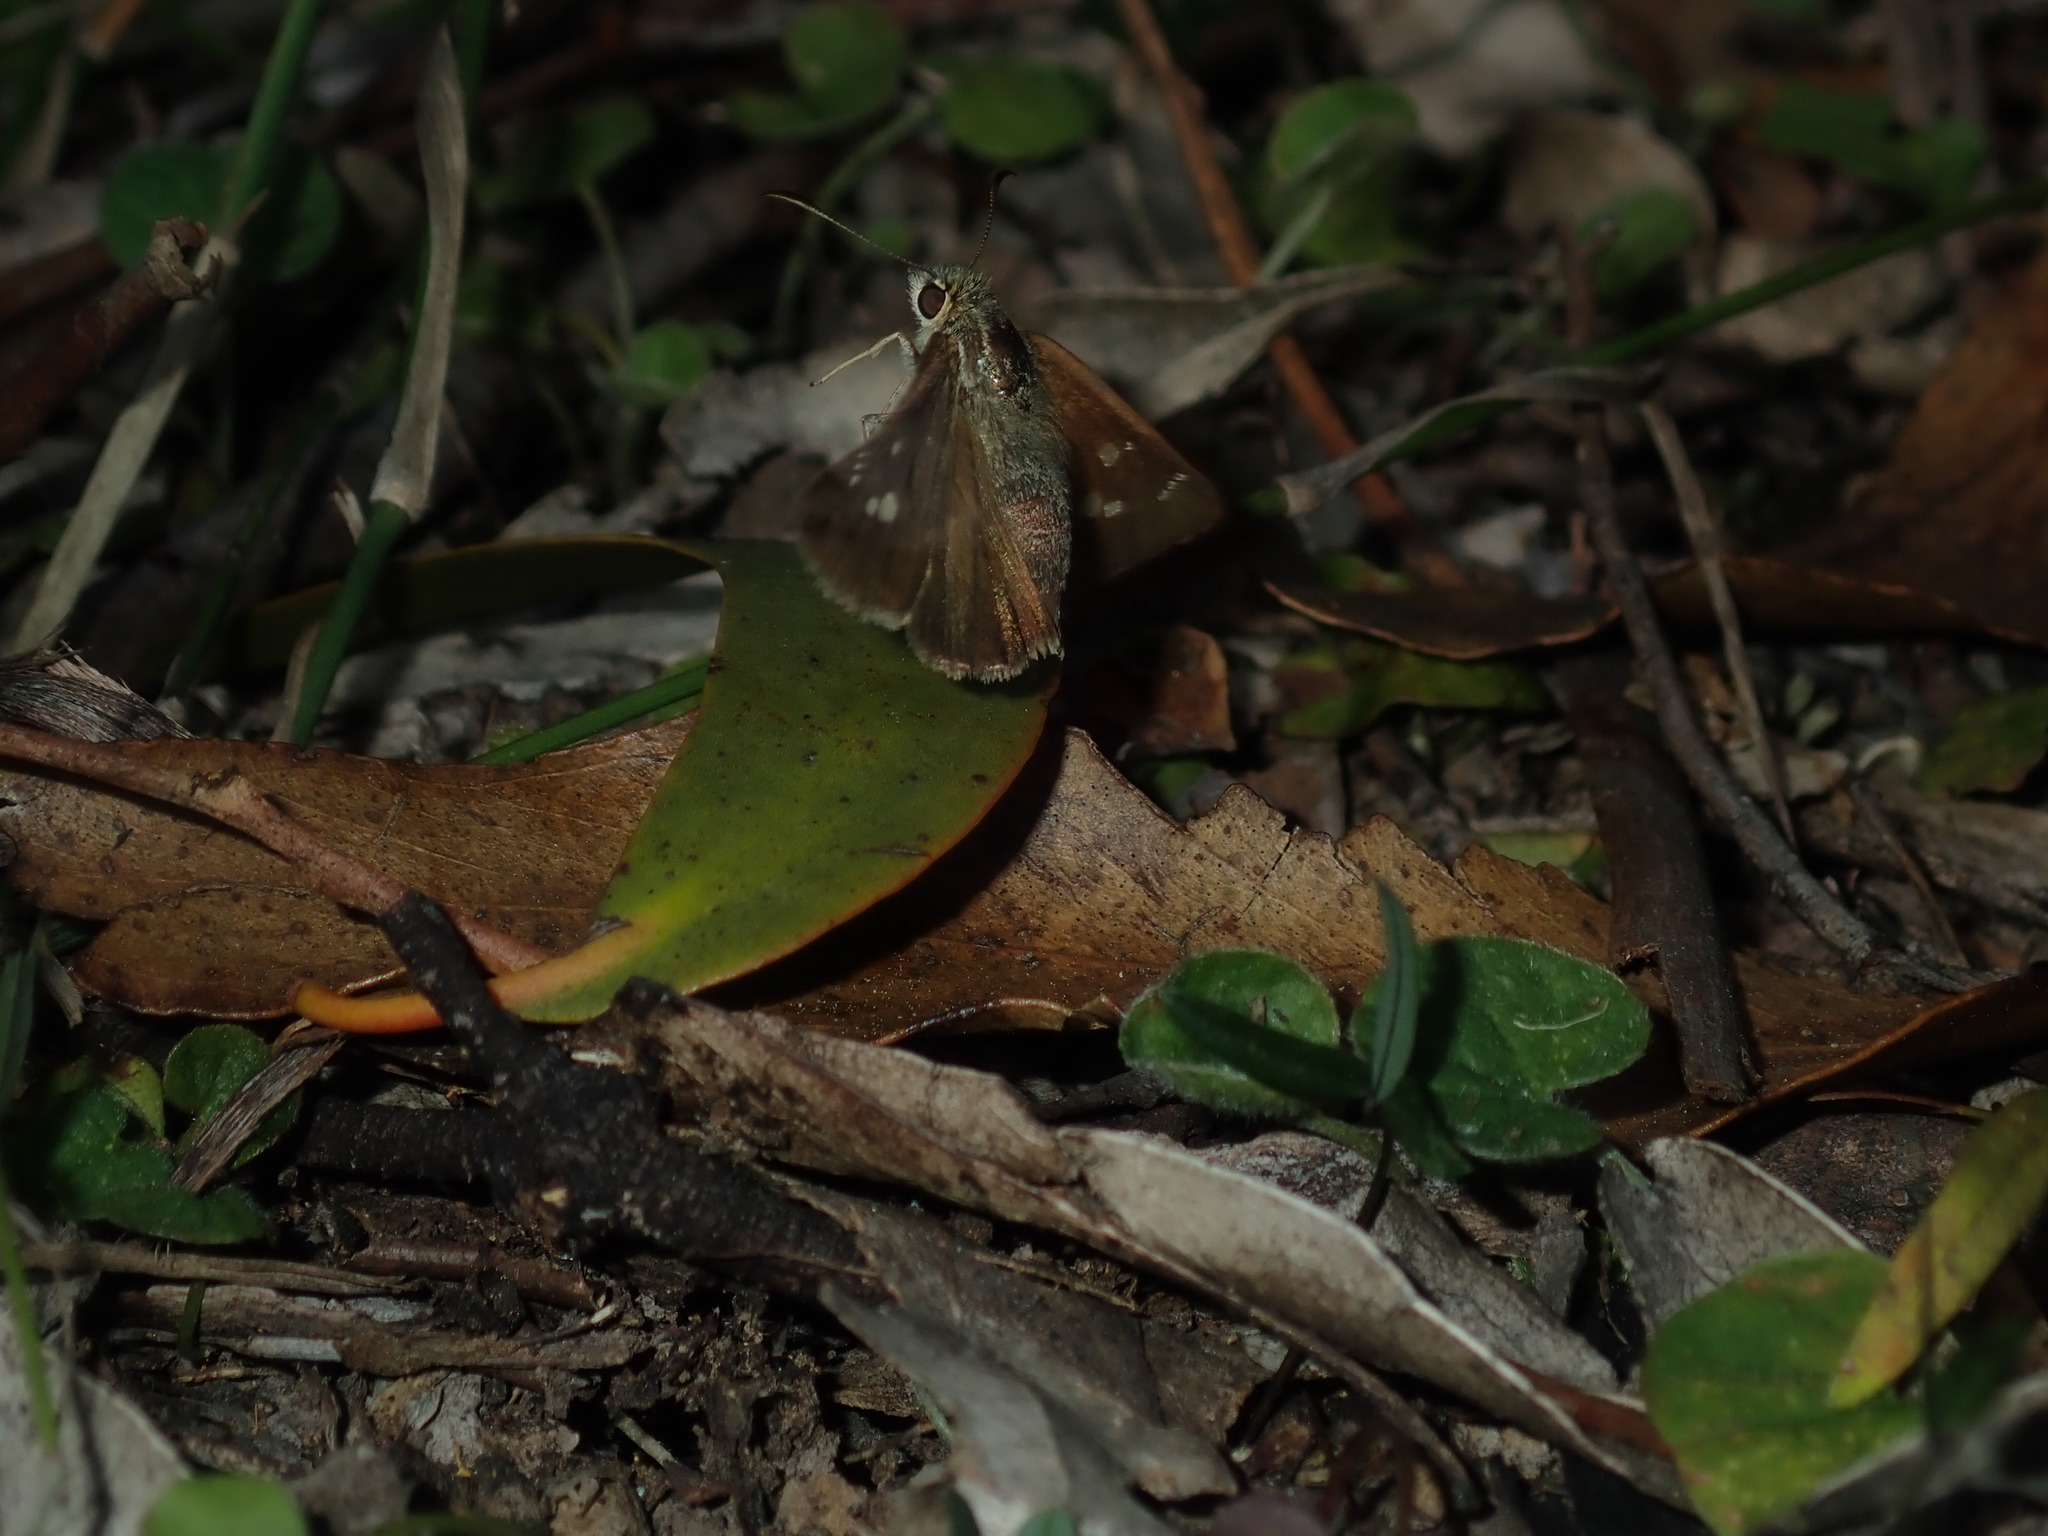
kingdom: Animalia
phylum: Arthropoda
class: Insecta
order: Lepidoptera
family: Hesperiidae
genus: Toxidia
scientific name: Toxidia
